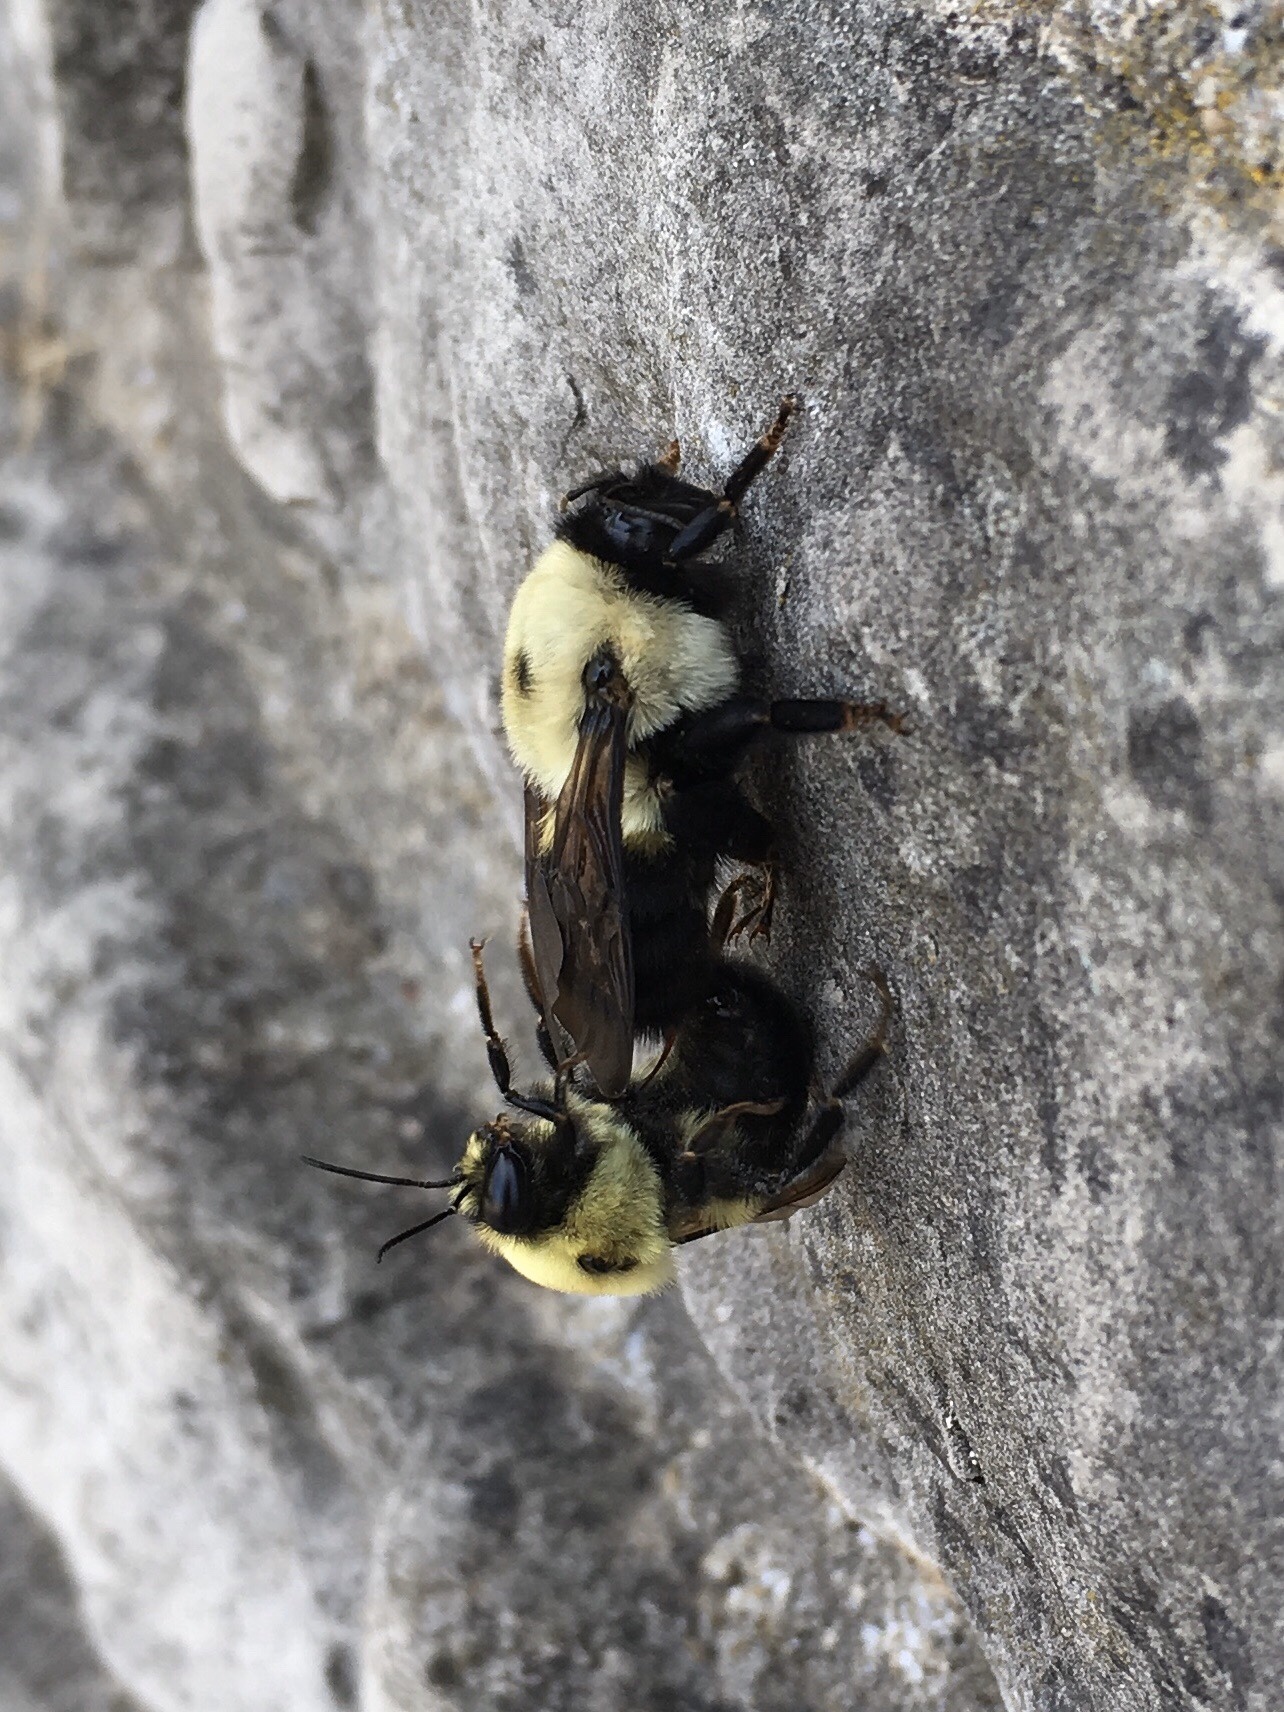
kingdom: Animalia
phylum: Arthropoda
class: Insecta
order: Hymenoptera
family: Apidae
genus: Bombus
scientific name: Bombus griseocollis
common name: Brown-belted bumble bee
